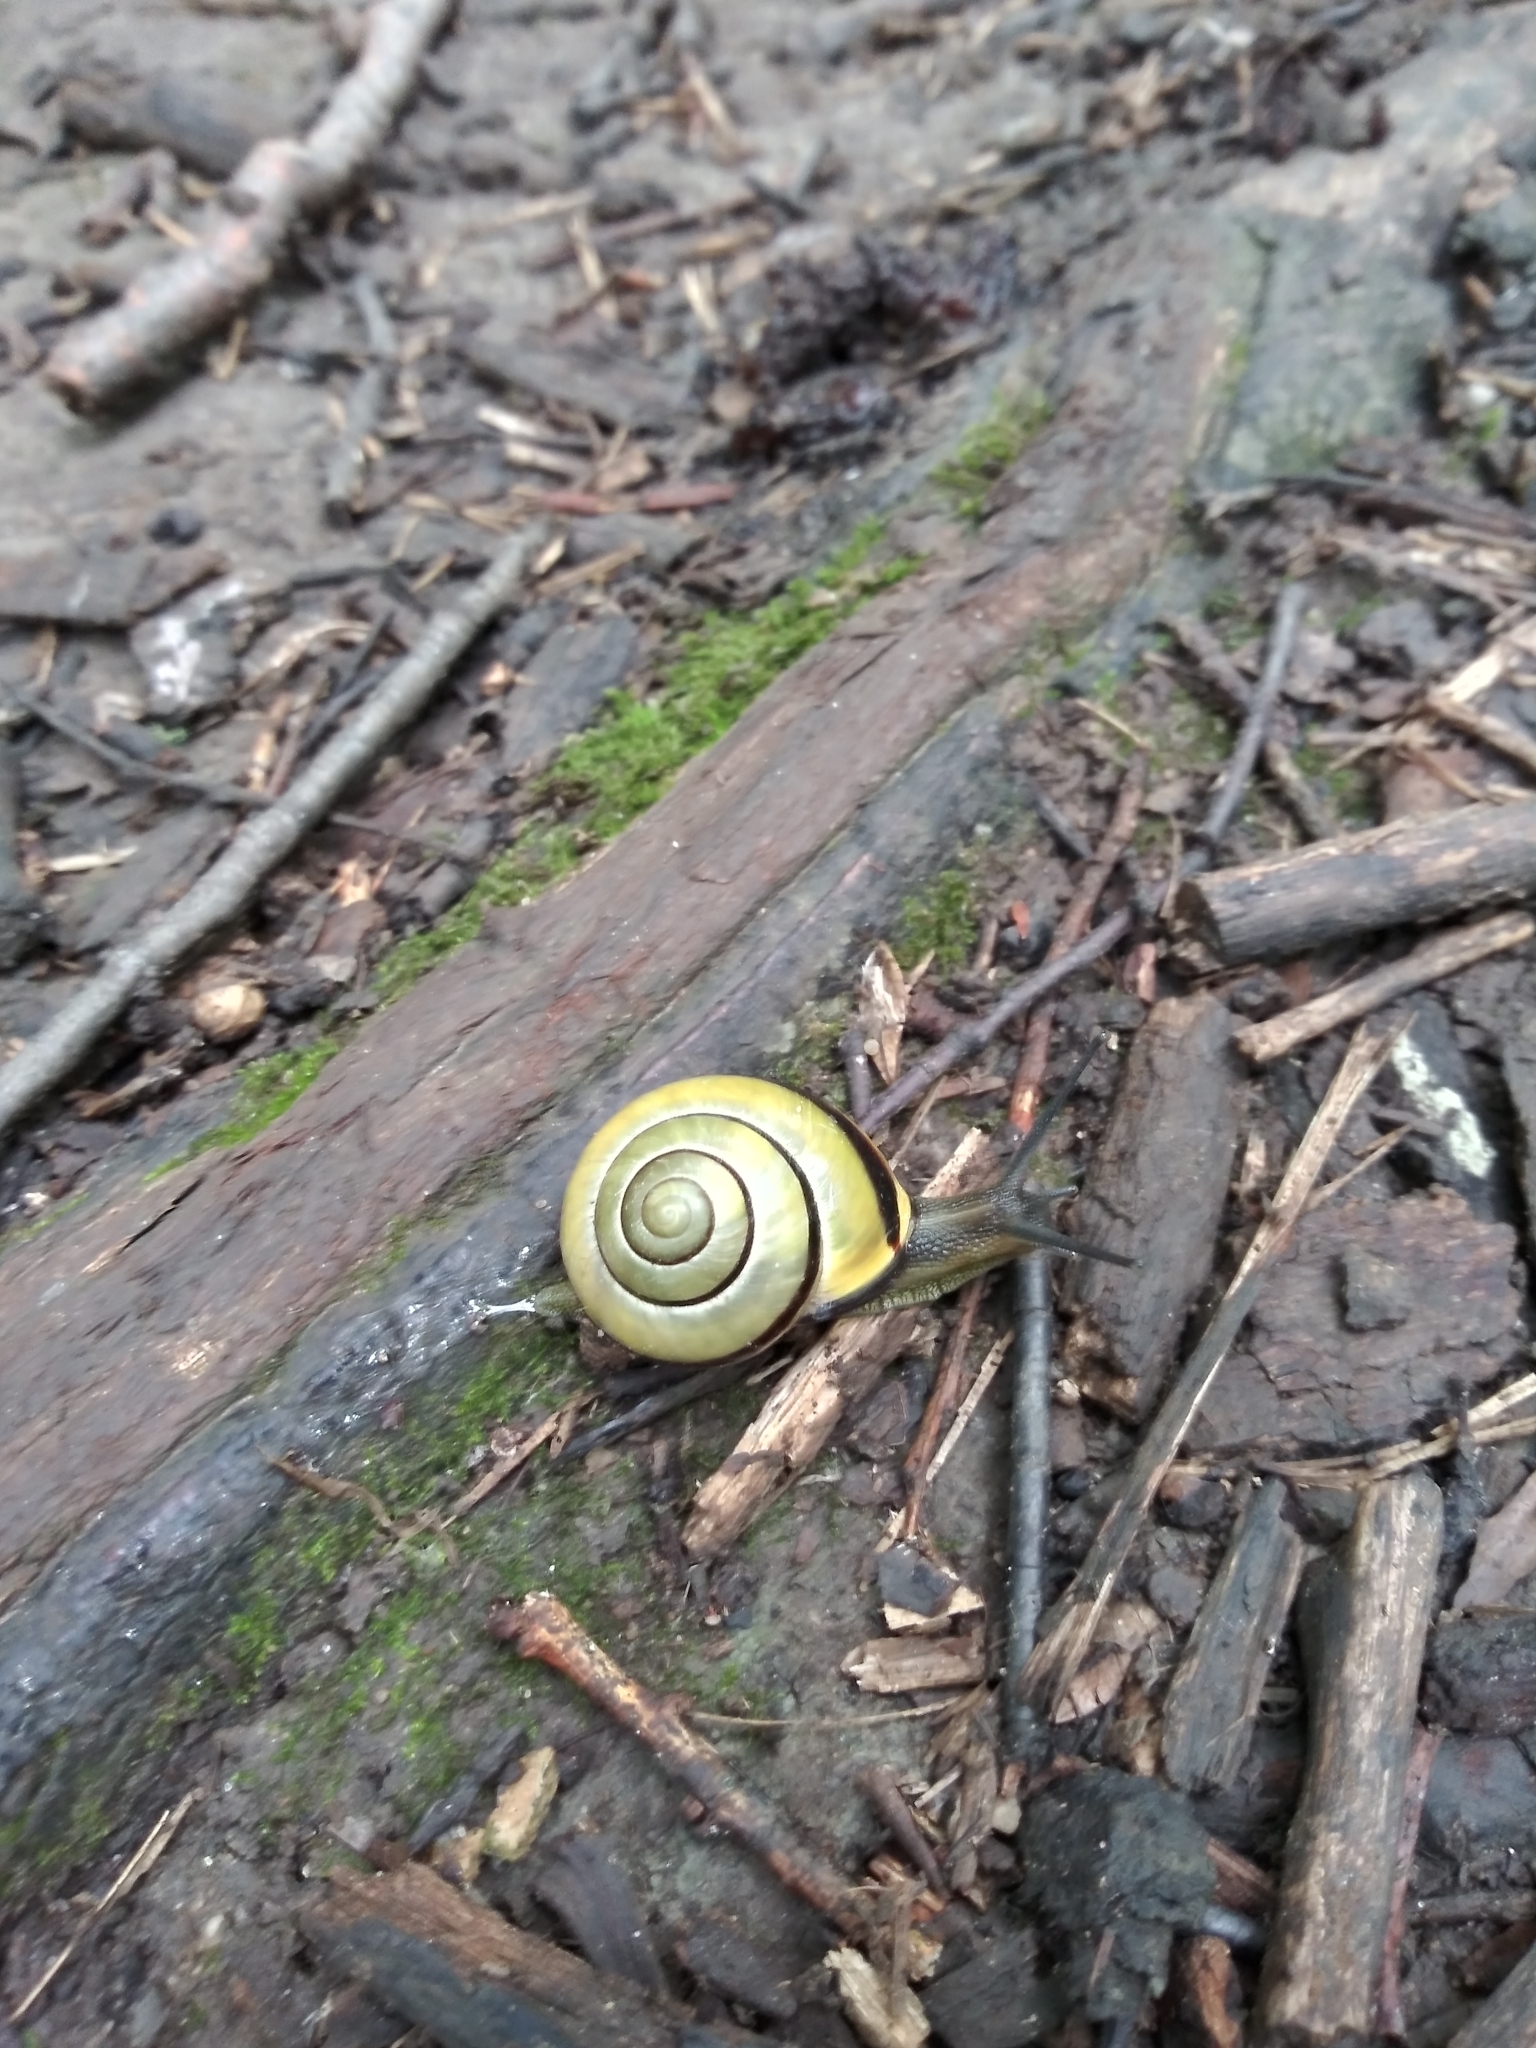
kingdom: Animalia
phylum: Mollusca
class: Gastropoda
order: Stylommatophora
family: Helicidae
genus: Cepaea
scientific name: Cepaea nemoralis
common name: Grovesnail
